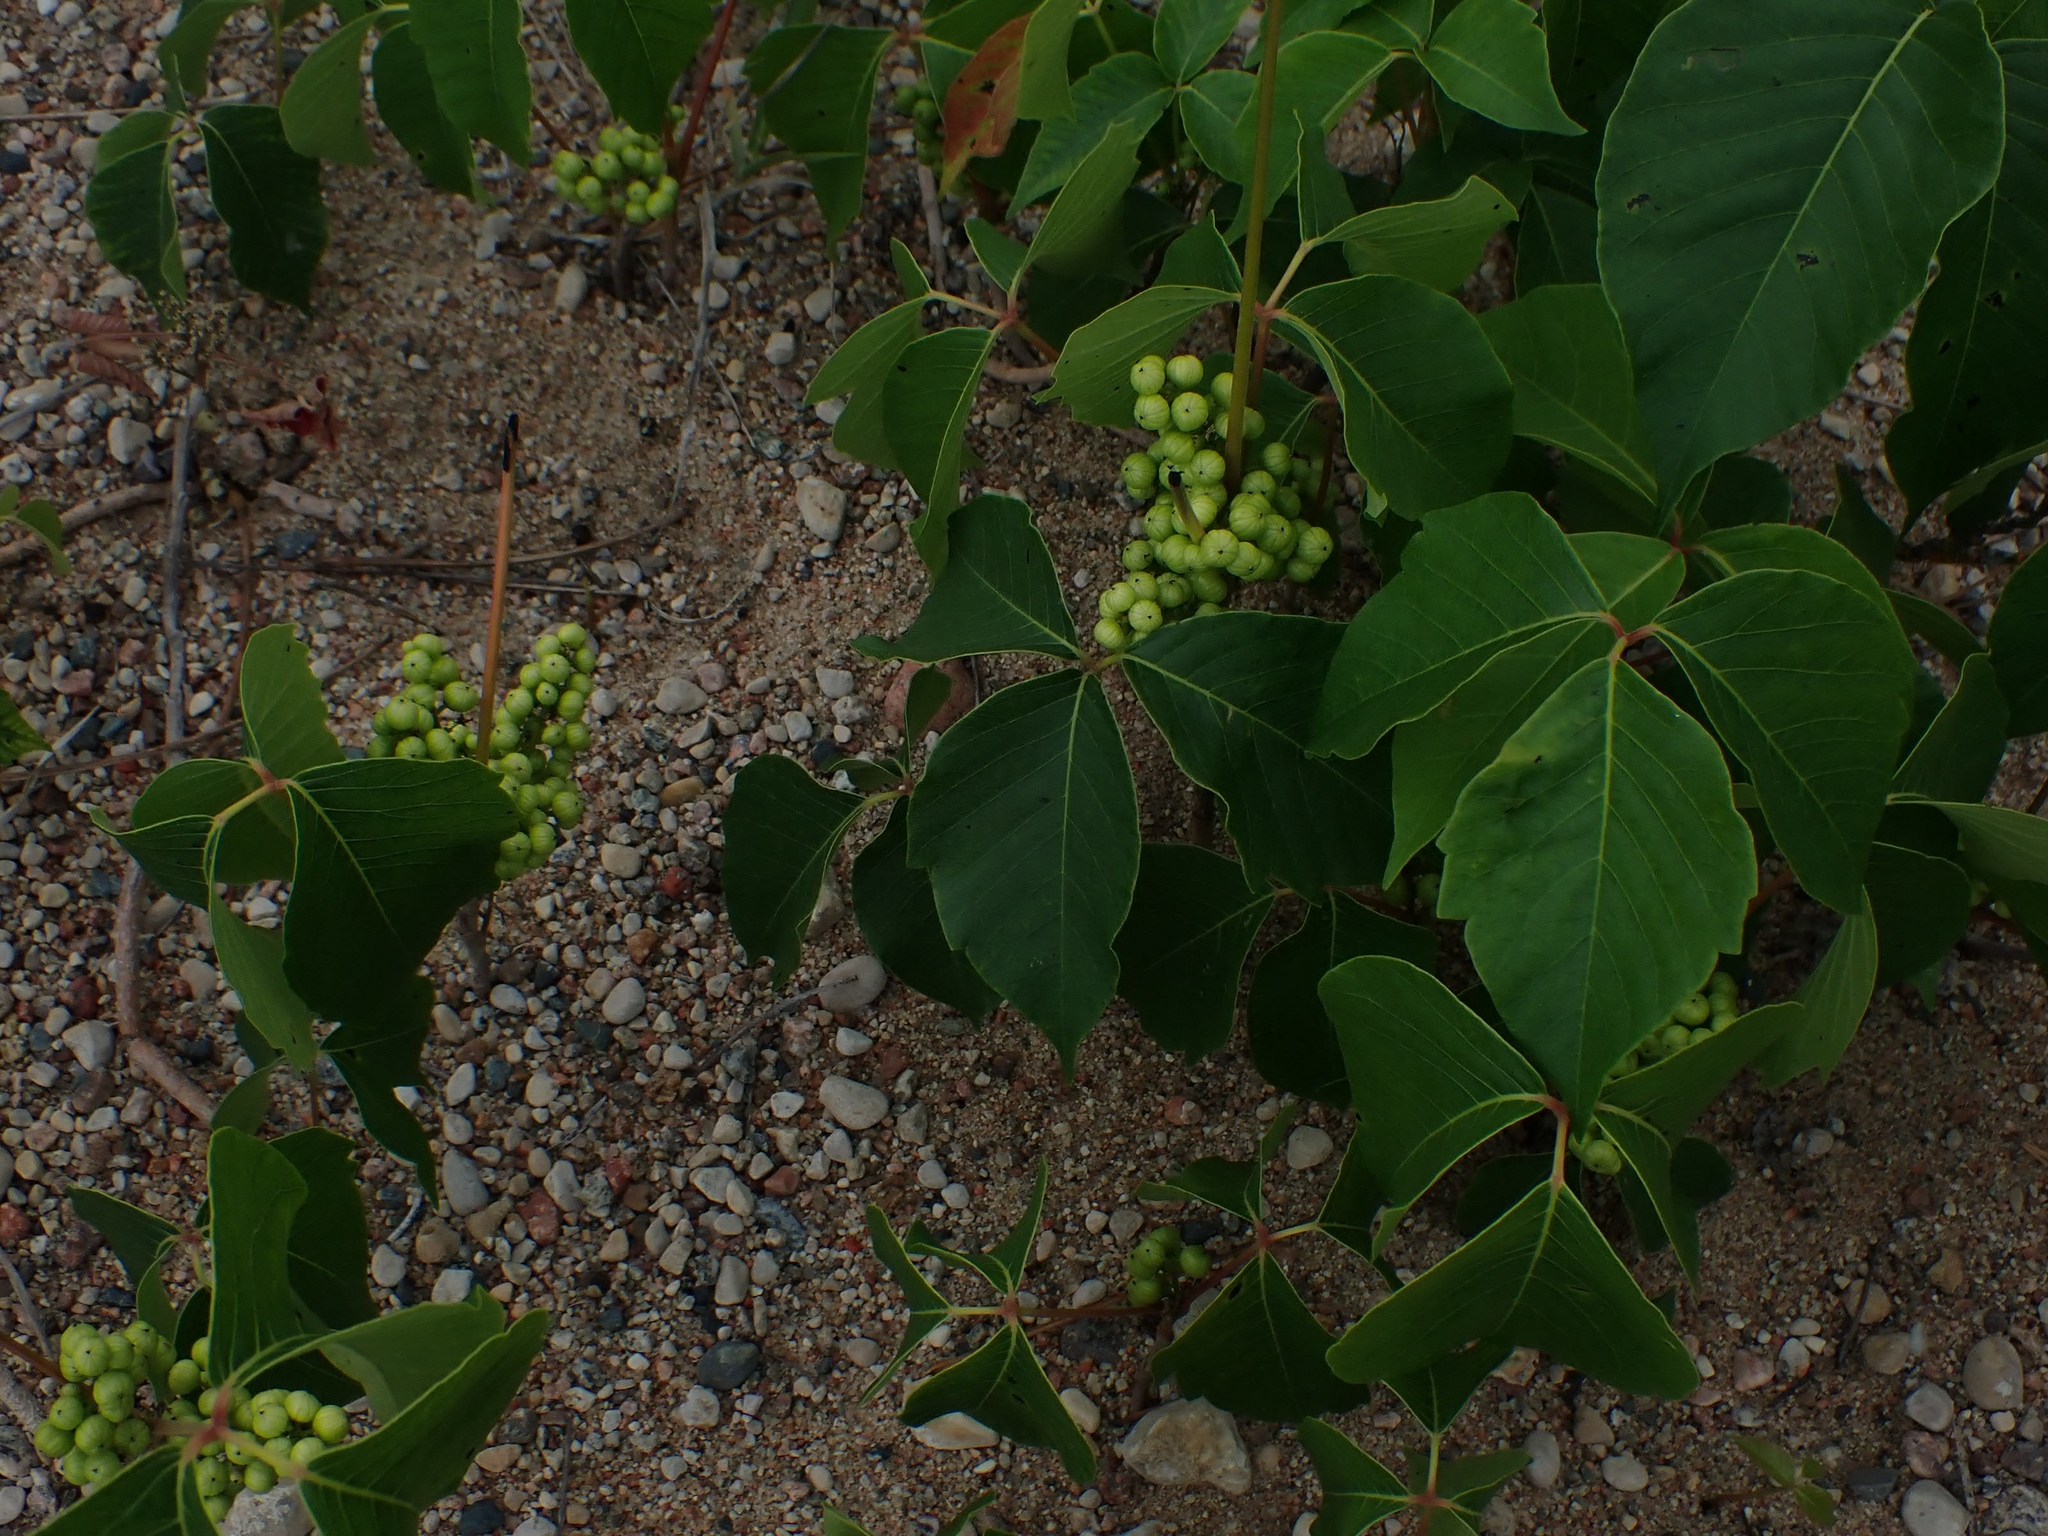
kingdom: Plantae
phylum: Tracheophyta
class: Magnoliopsida
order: Sapindales
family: Anacardiaceae
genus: Toxicodendron
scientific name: Toxicodendron rydbergii
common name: Rydberg's poison-ivy
